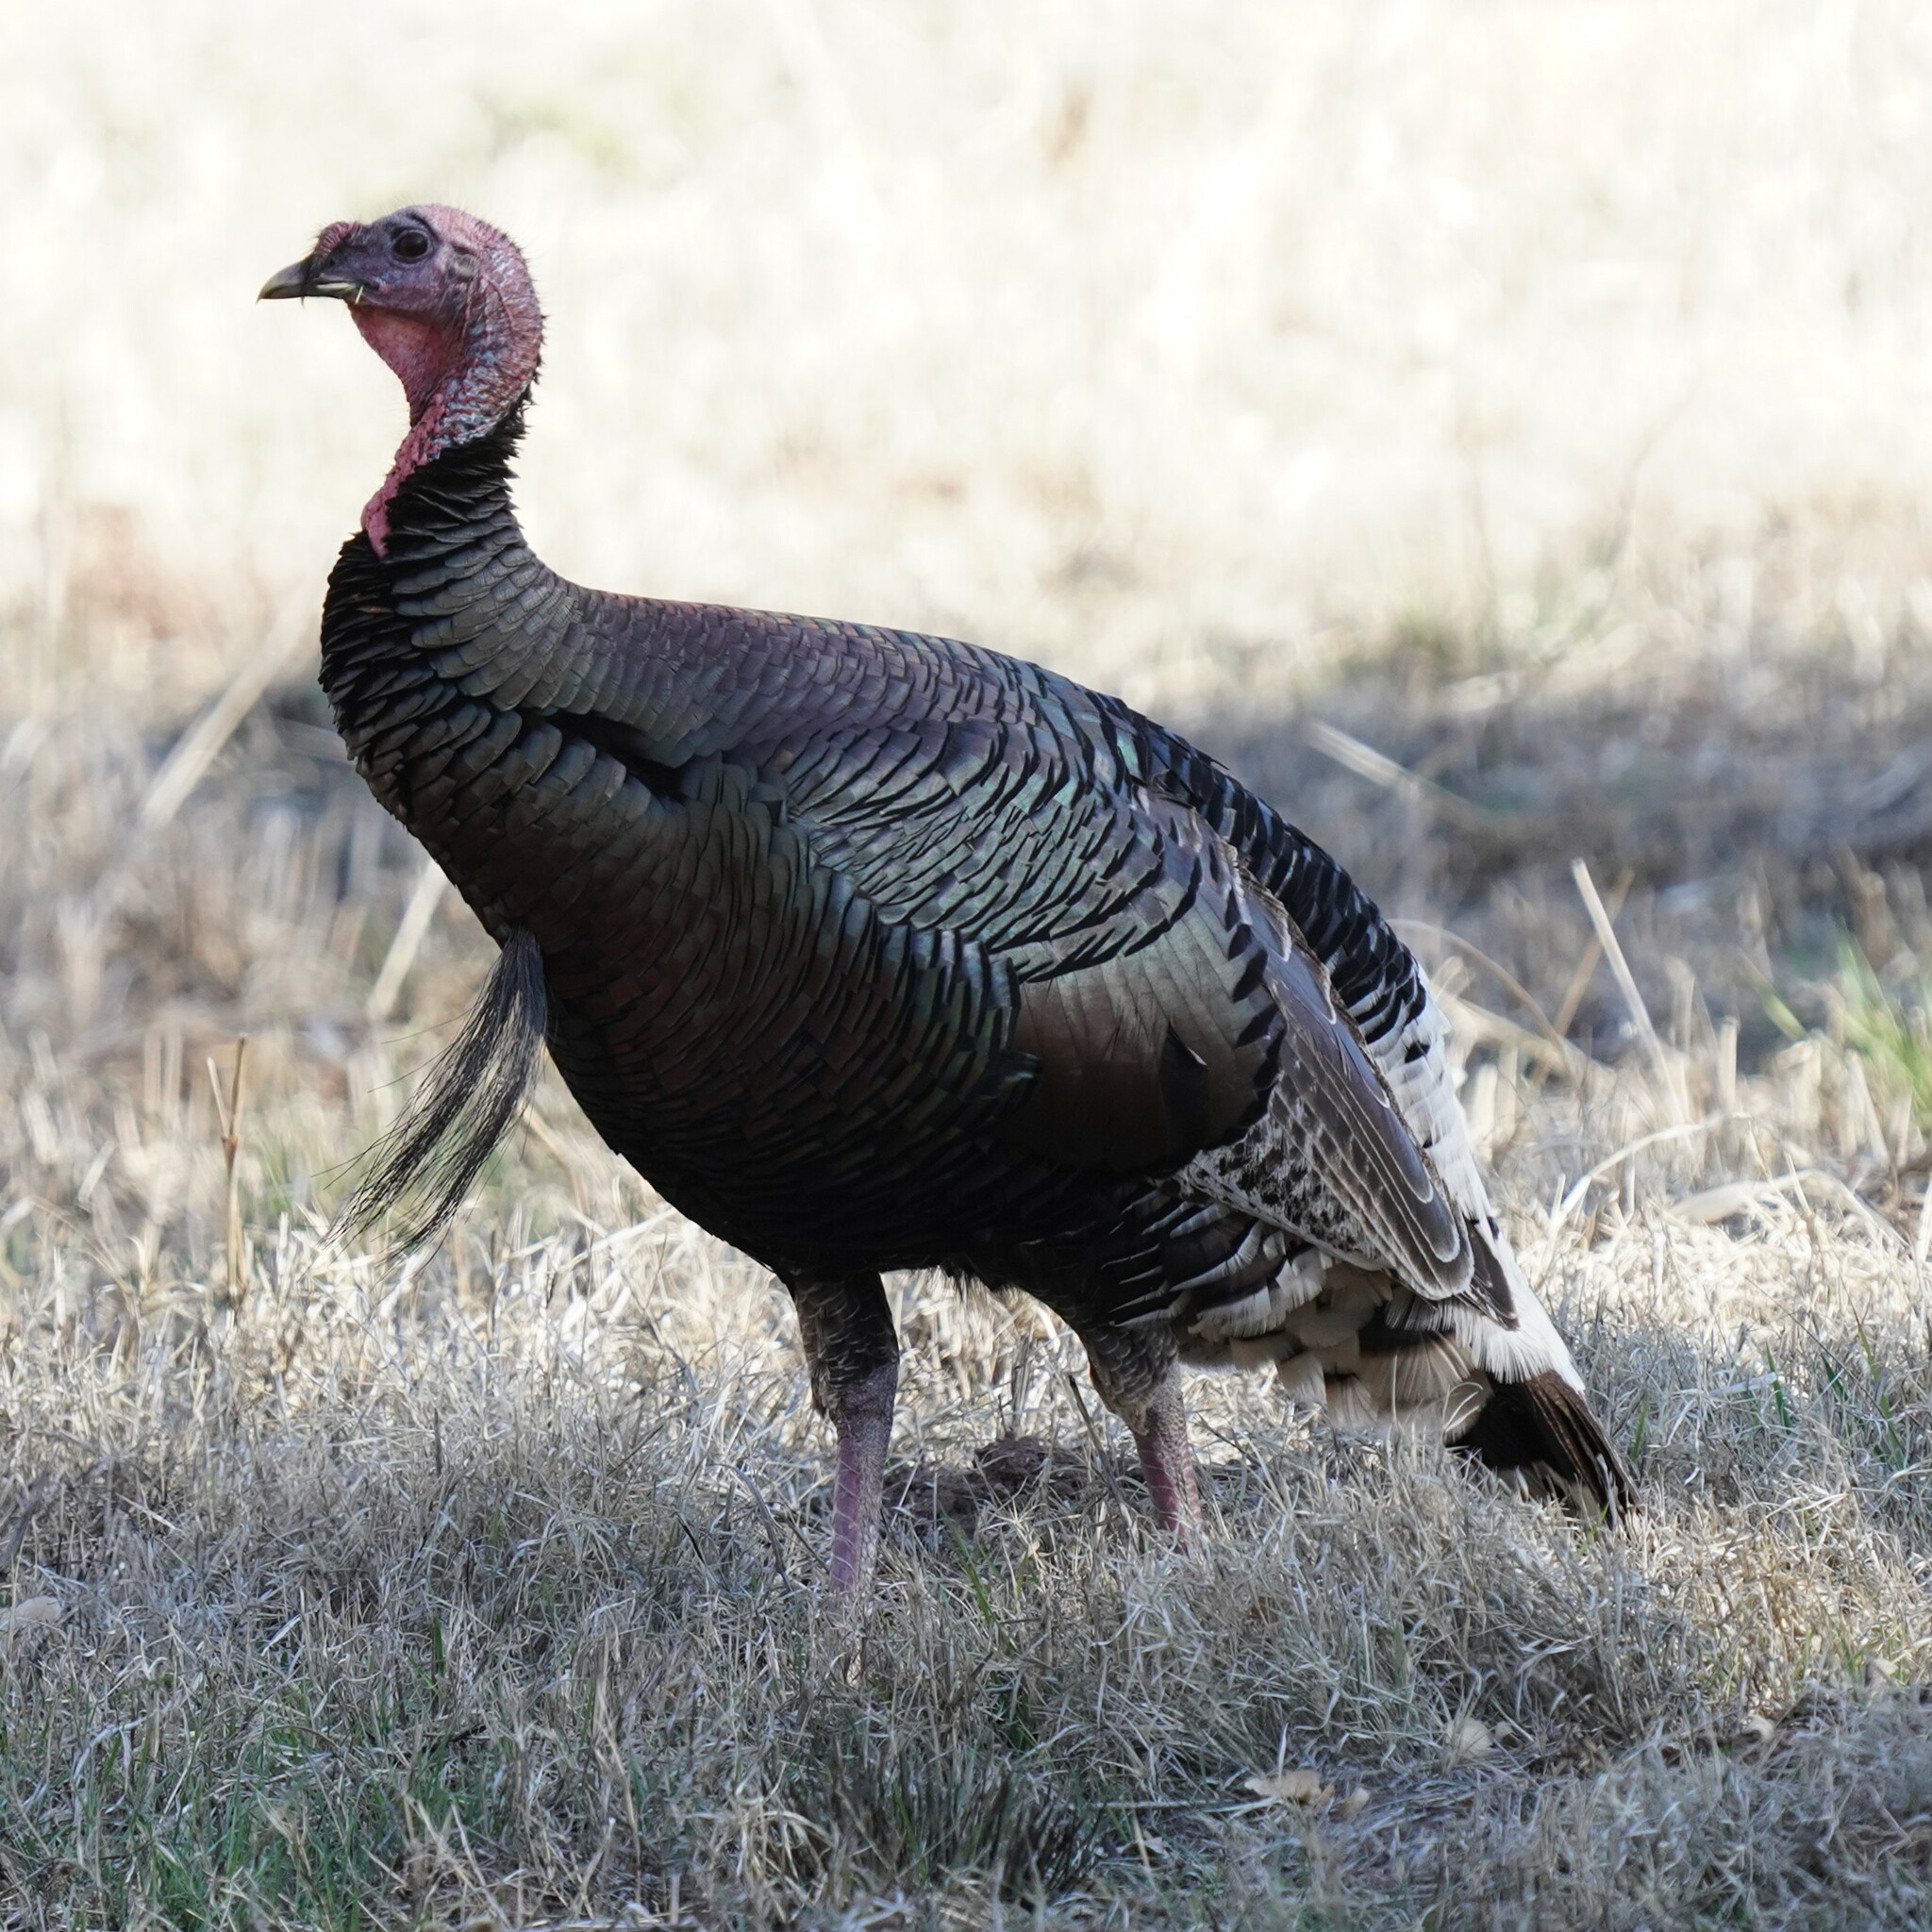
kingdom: Animalia
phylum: Chordata
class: Aves
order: Galliformes
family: Phasianidae
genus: Meleagris
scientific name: Meleagris gallopavo
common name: Wild turkey
